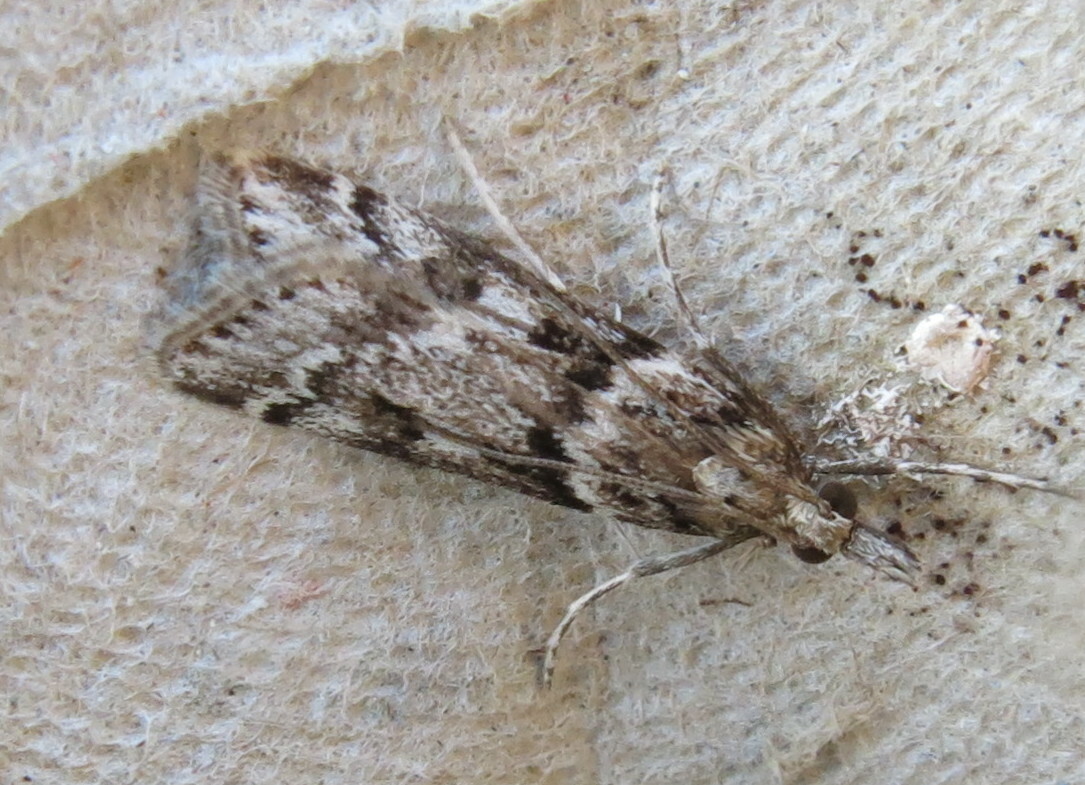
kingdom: Animalia
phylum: Arthropoda
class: Insecta
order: Lepidoptera
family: Crambidae
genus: Eudonia
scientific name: Eudonia angustea
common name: Narrow-winged grey
